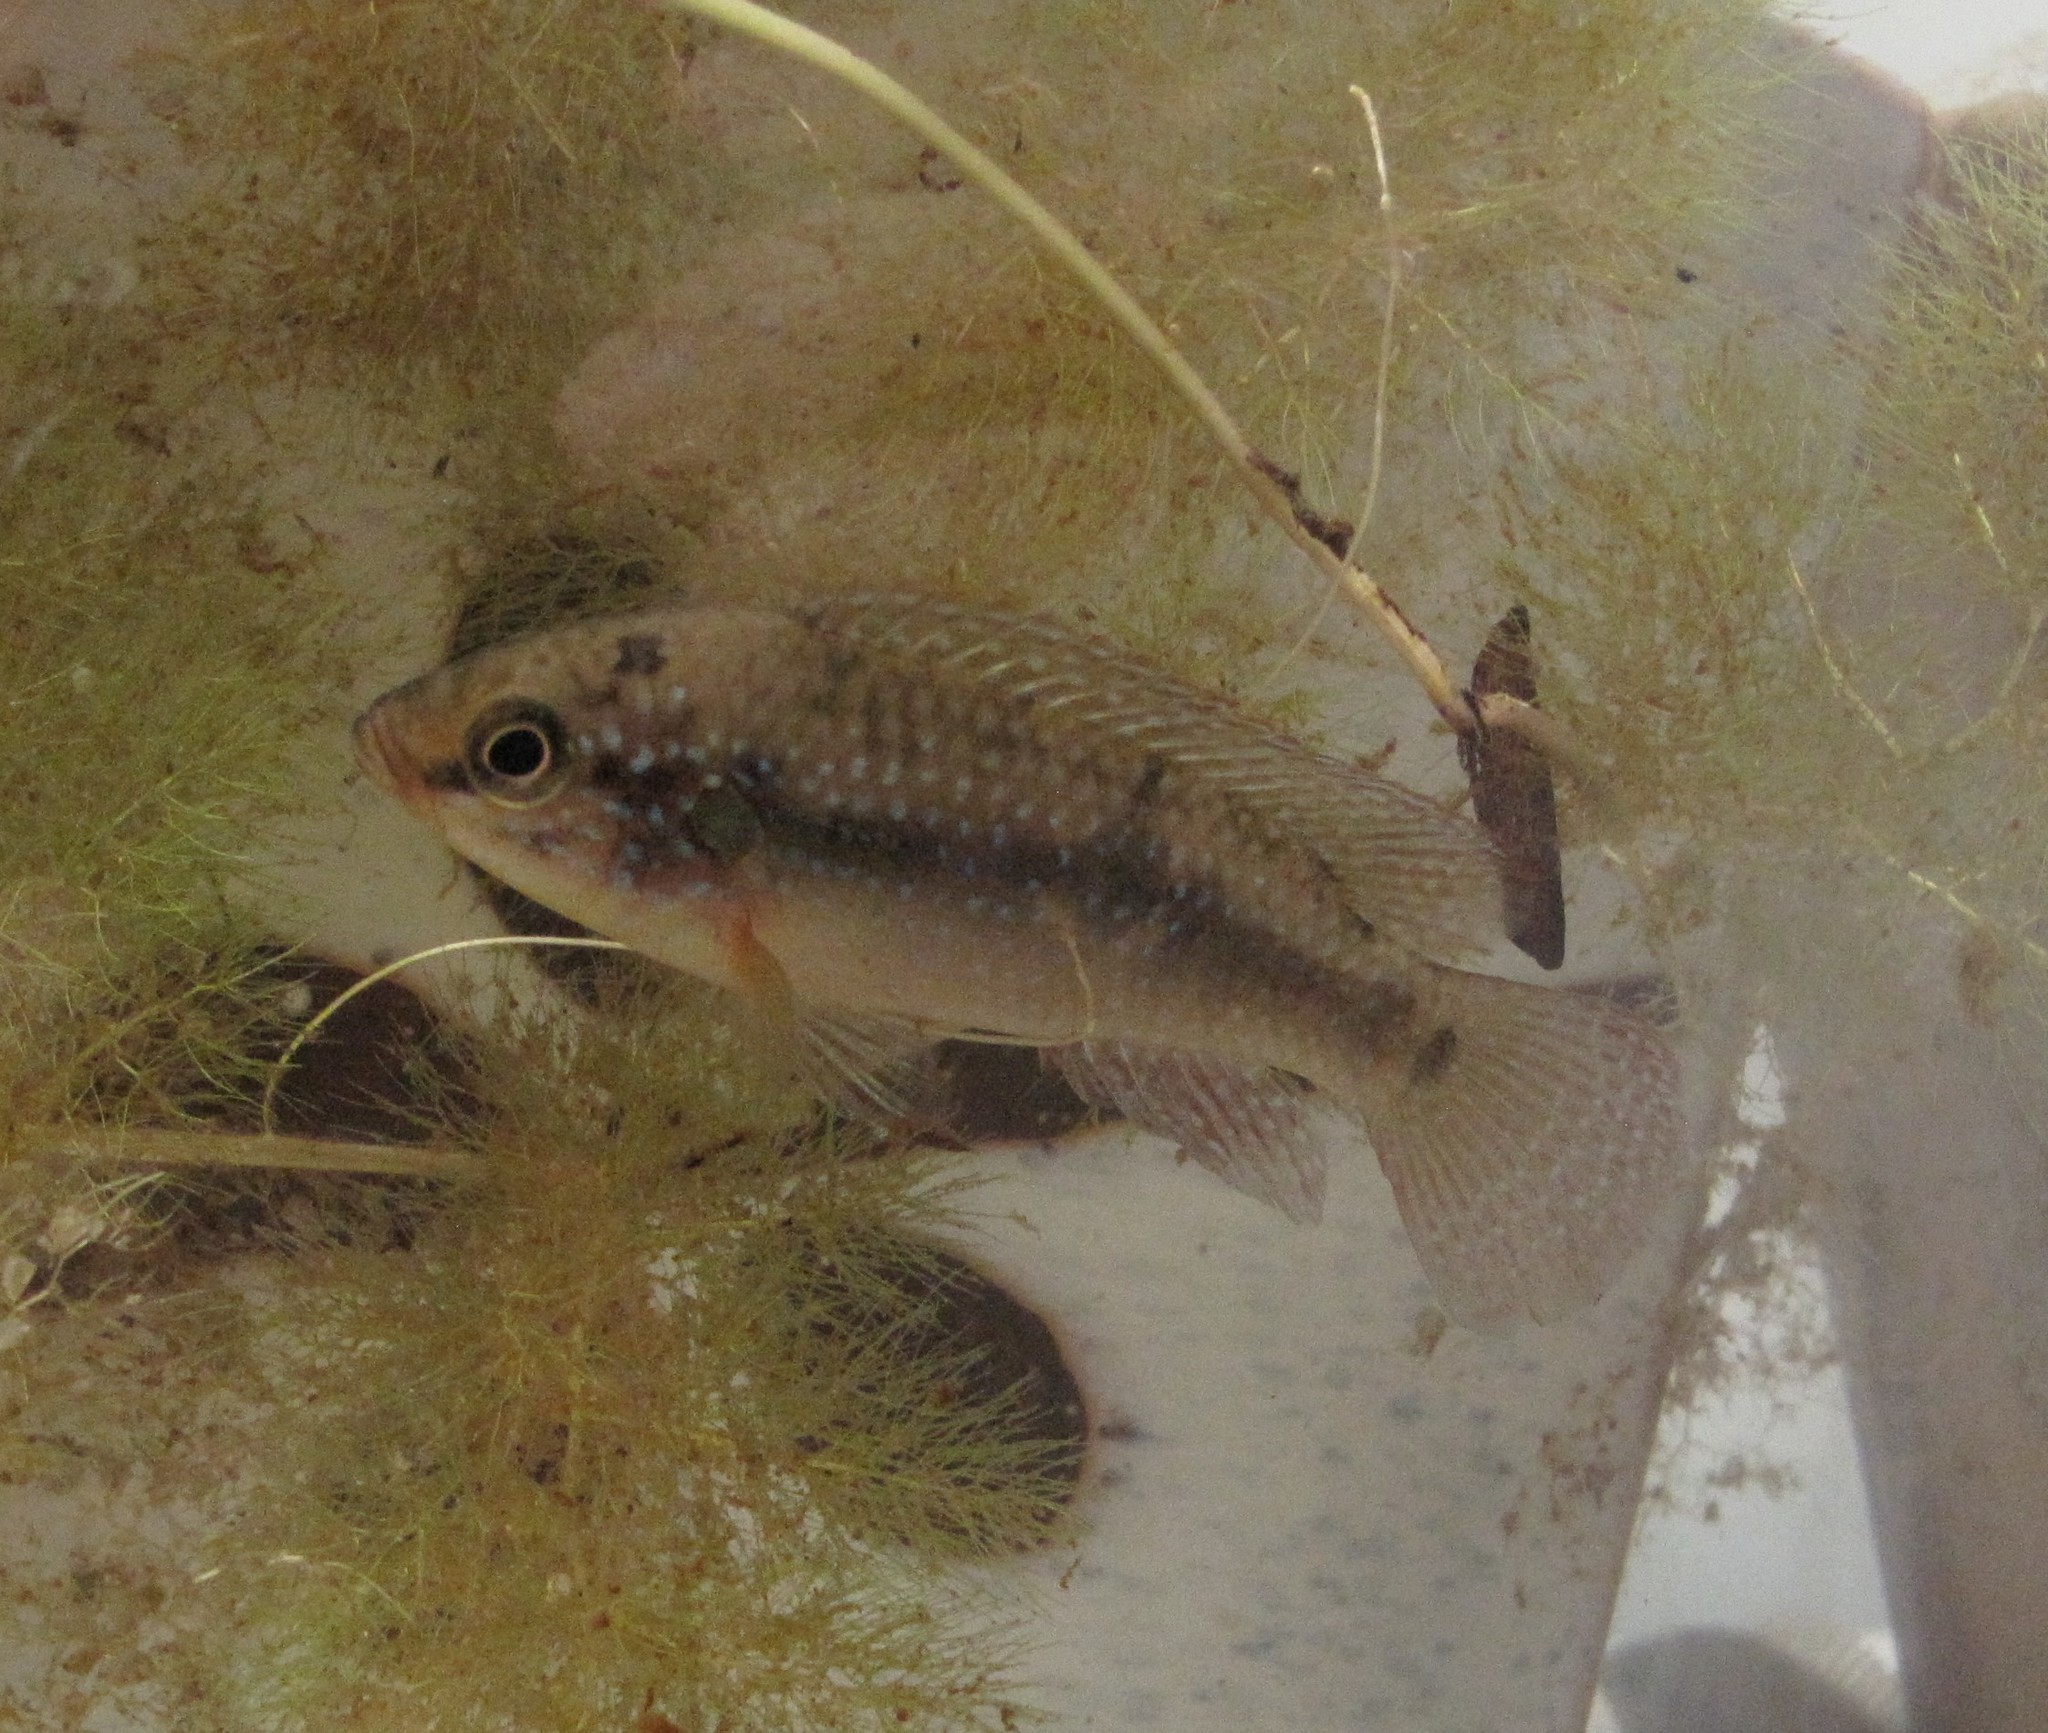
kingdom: Animalia
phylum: Chordata
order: Perciformes
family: Cichlidae
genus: Rubricatochromis
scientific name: Rubricatochromis
